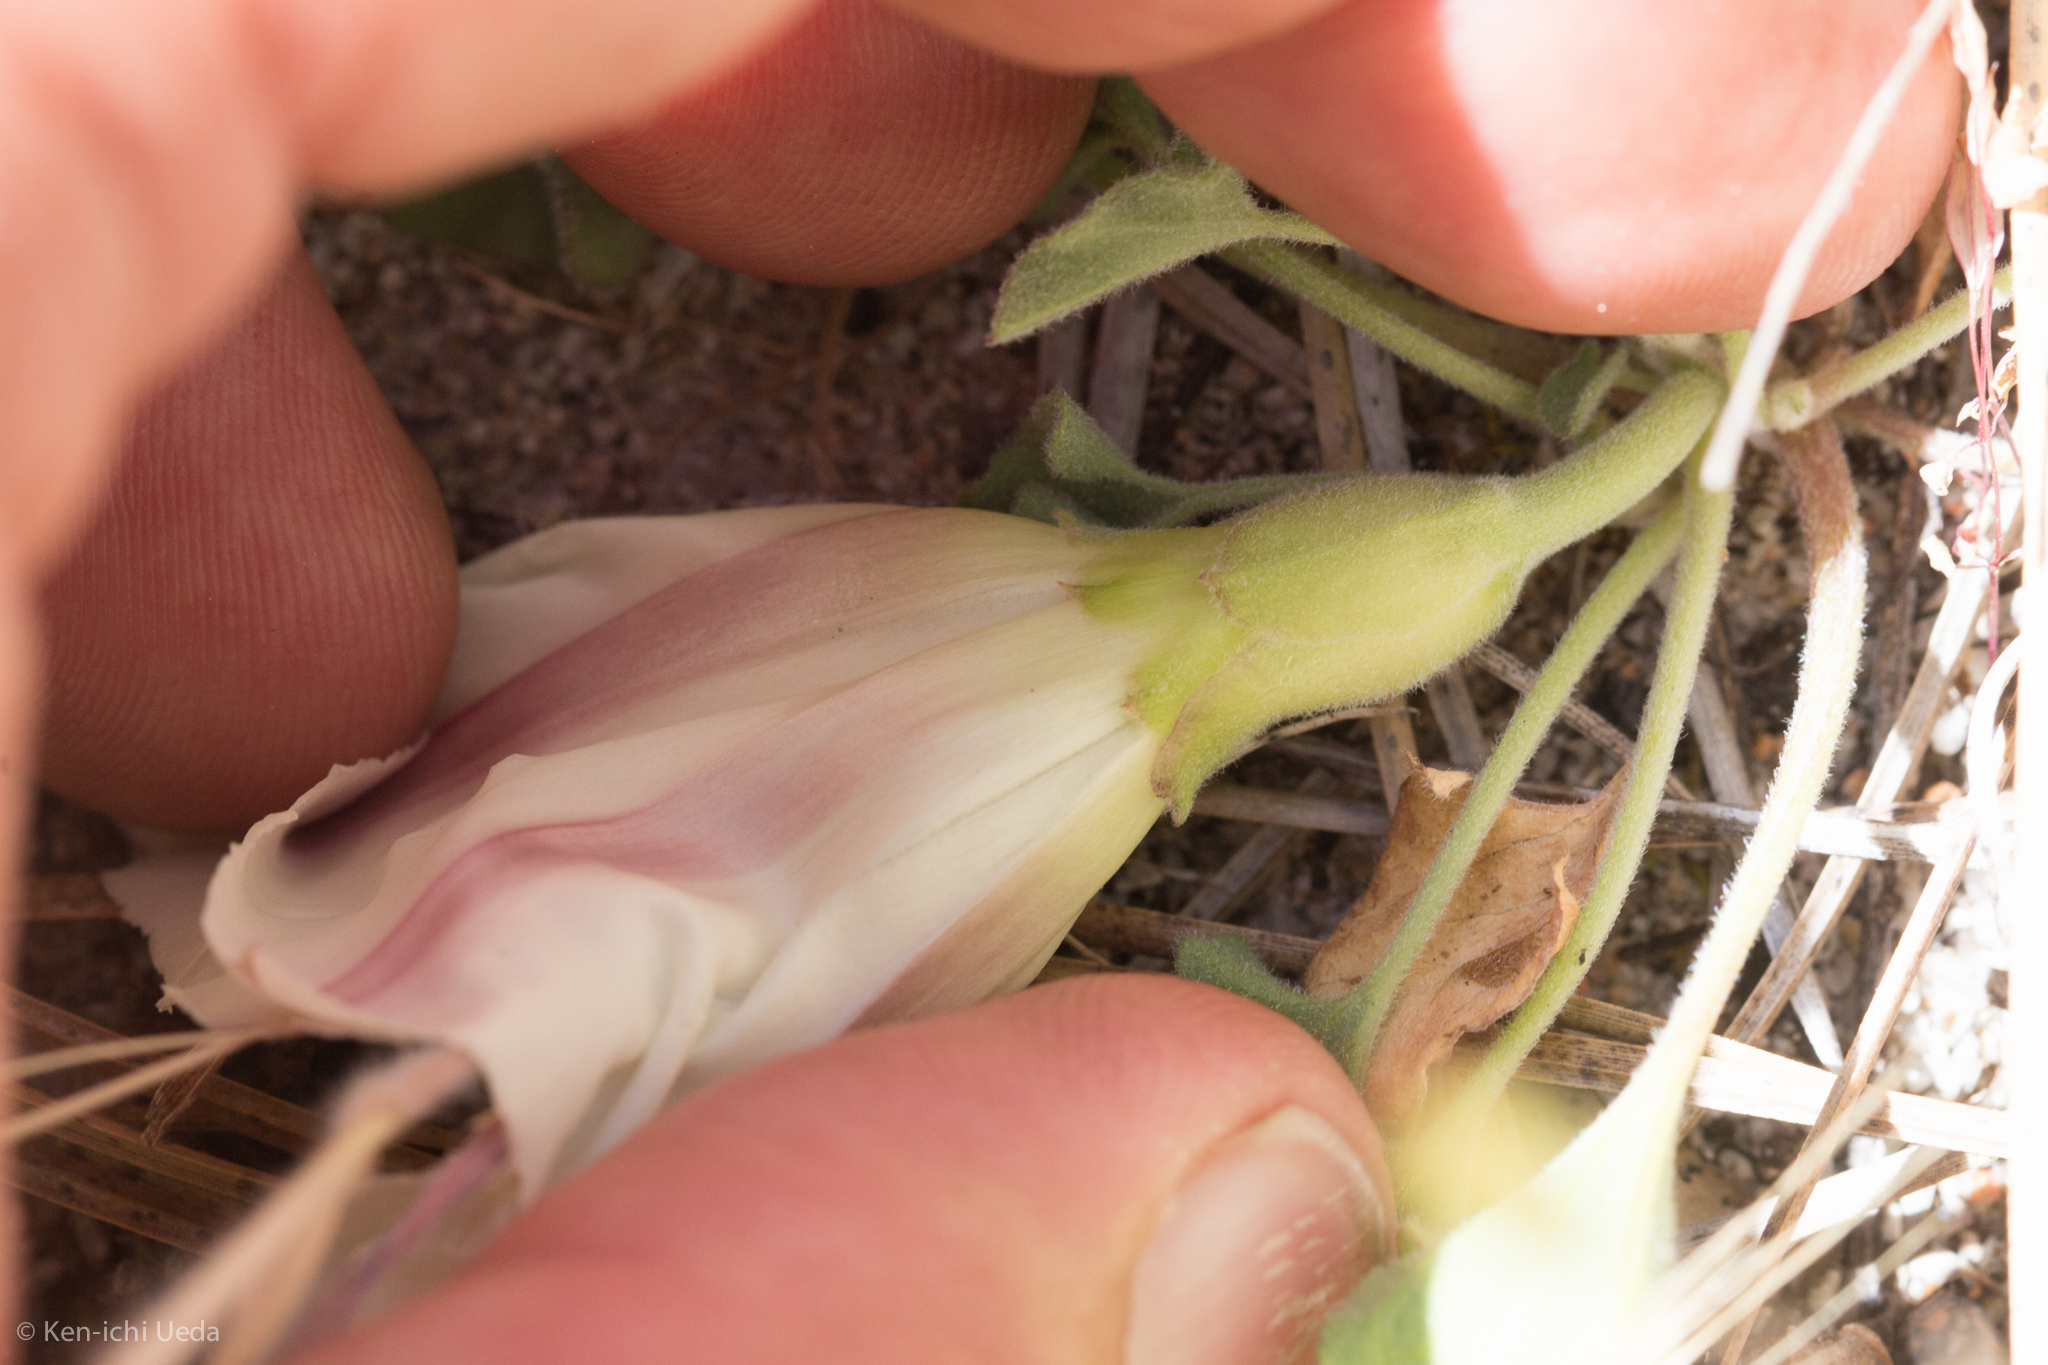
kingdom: Plantae
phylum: Tracheophyta
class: Magnoliopsida
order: Solanales
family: Convolvulaceae
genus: Calystegia
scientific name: Calystegia collina
